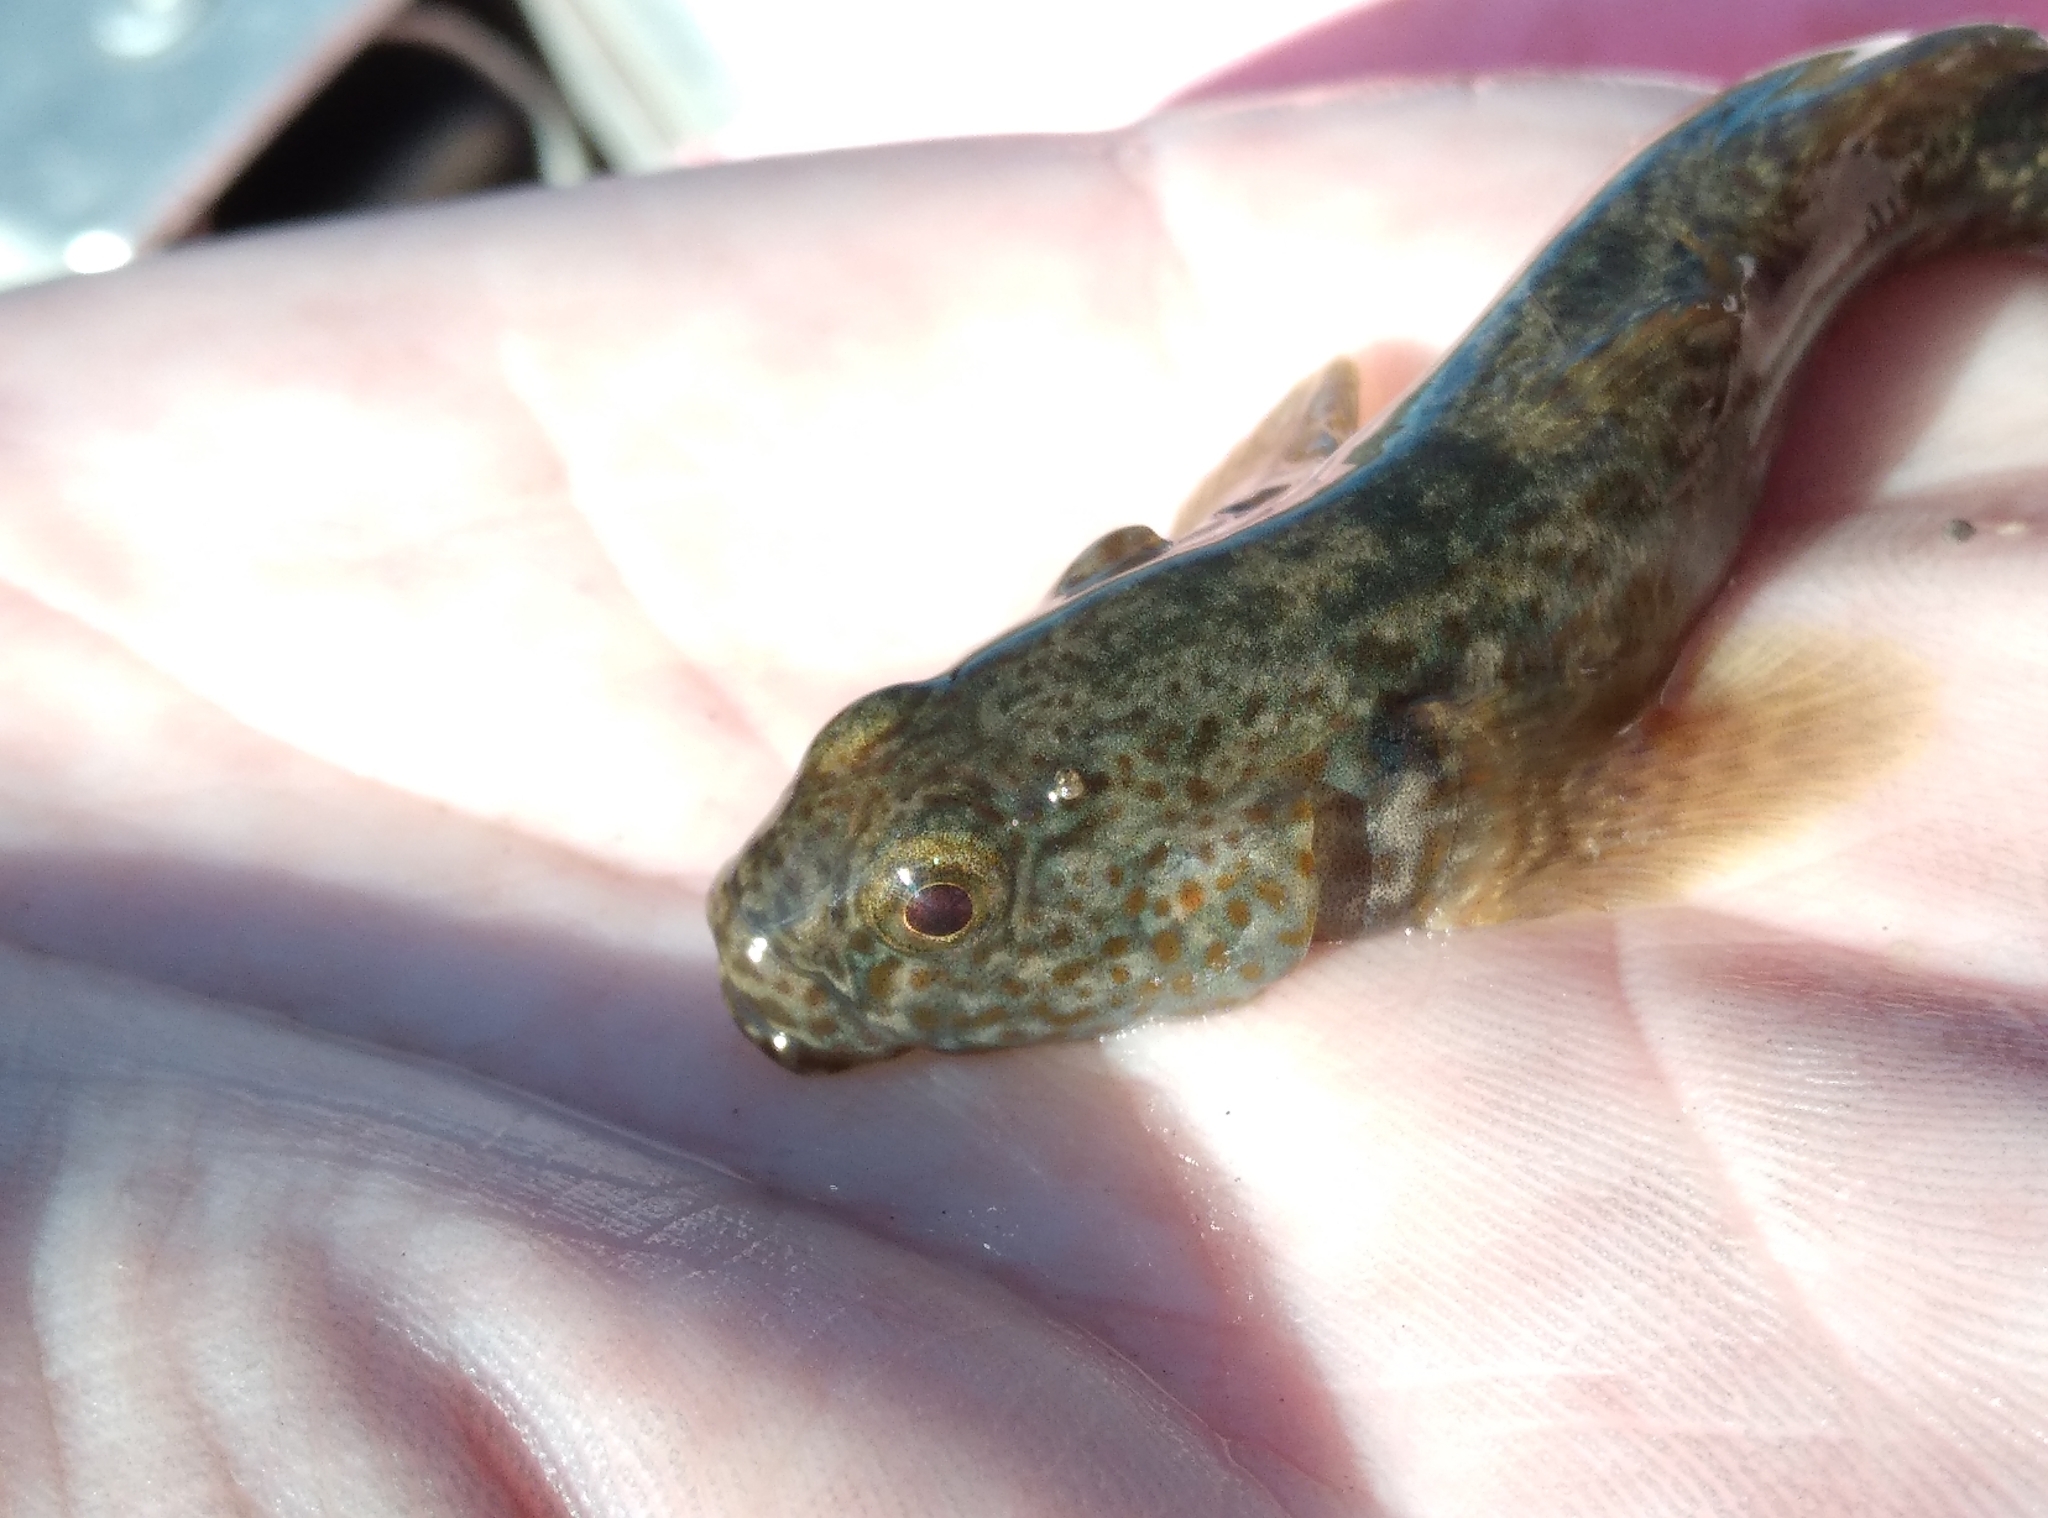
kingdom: Animalia
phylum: Chordata
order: Perciformes
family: Eleotridae
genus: Gobiomorphus
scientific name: Gobiomorphus breviceps
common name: Upland bully
